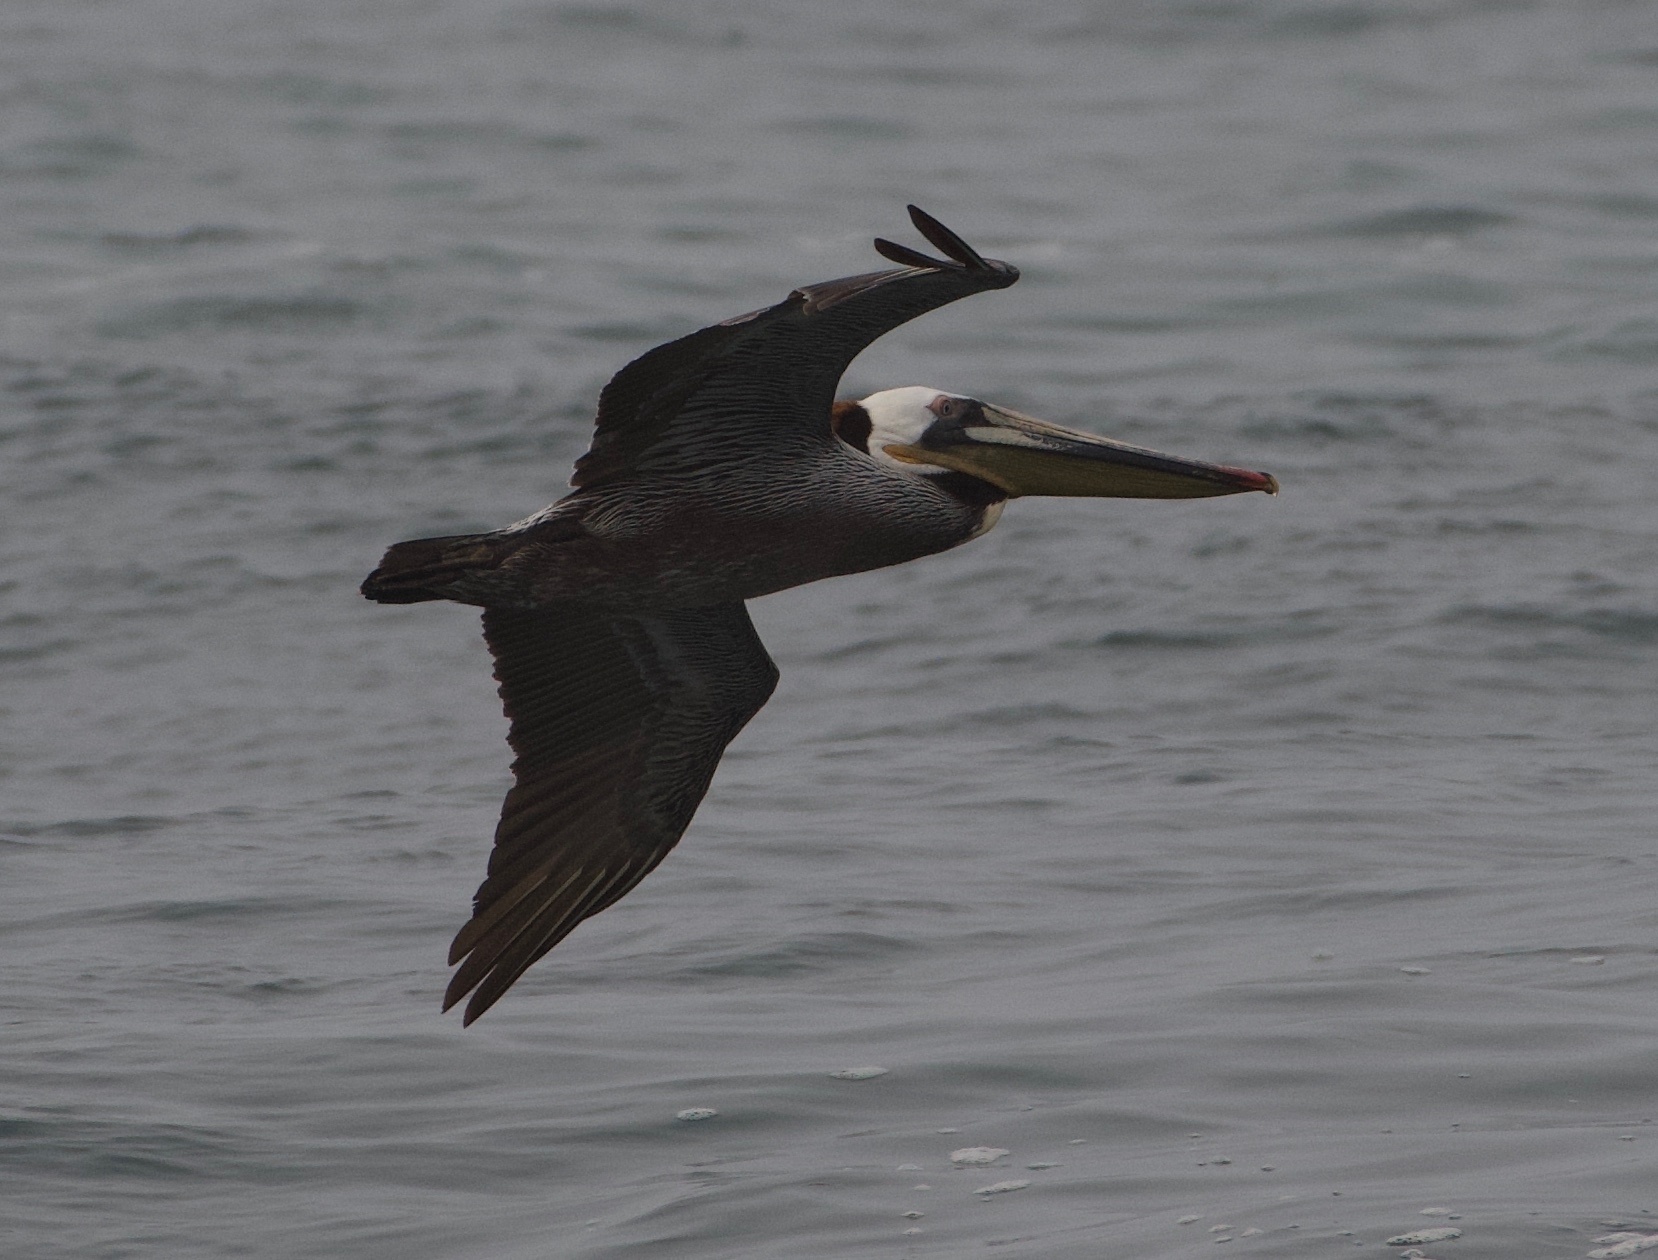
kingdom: Animalia
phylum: Chordata
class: Aves
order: Pelecaniformes
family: Pelecanidae
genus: Pelecanus
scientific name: Pelecanus occidentalis
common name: Brown pelican
